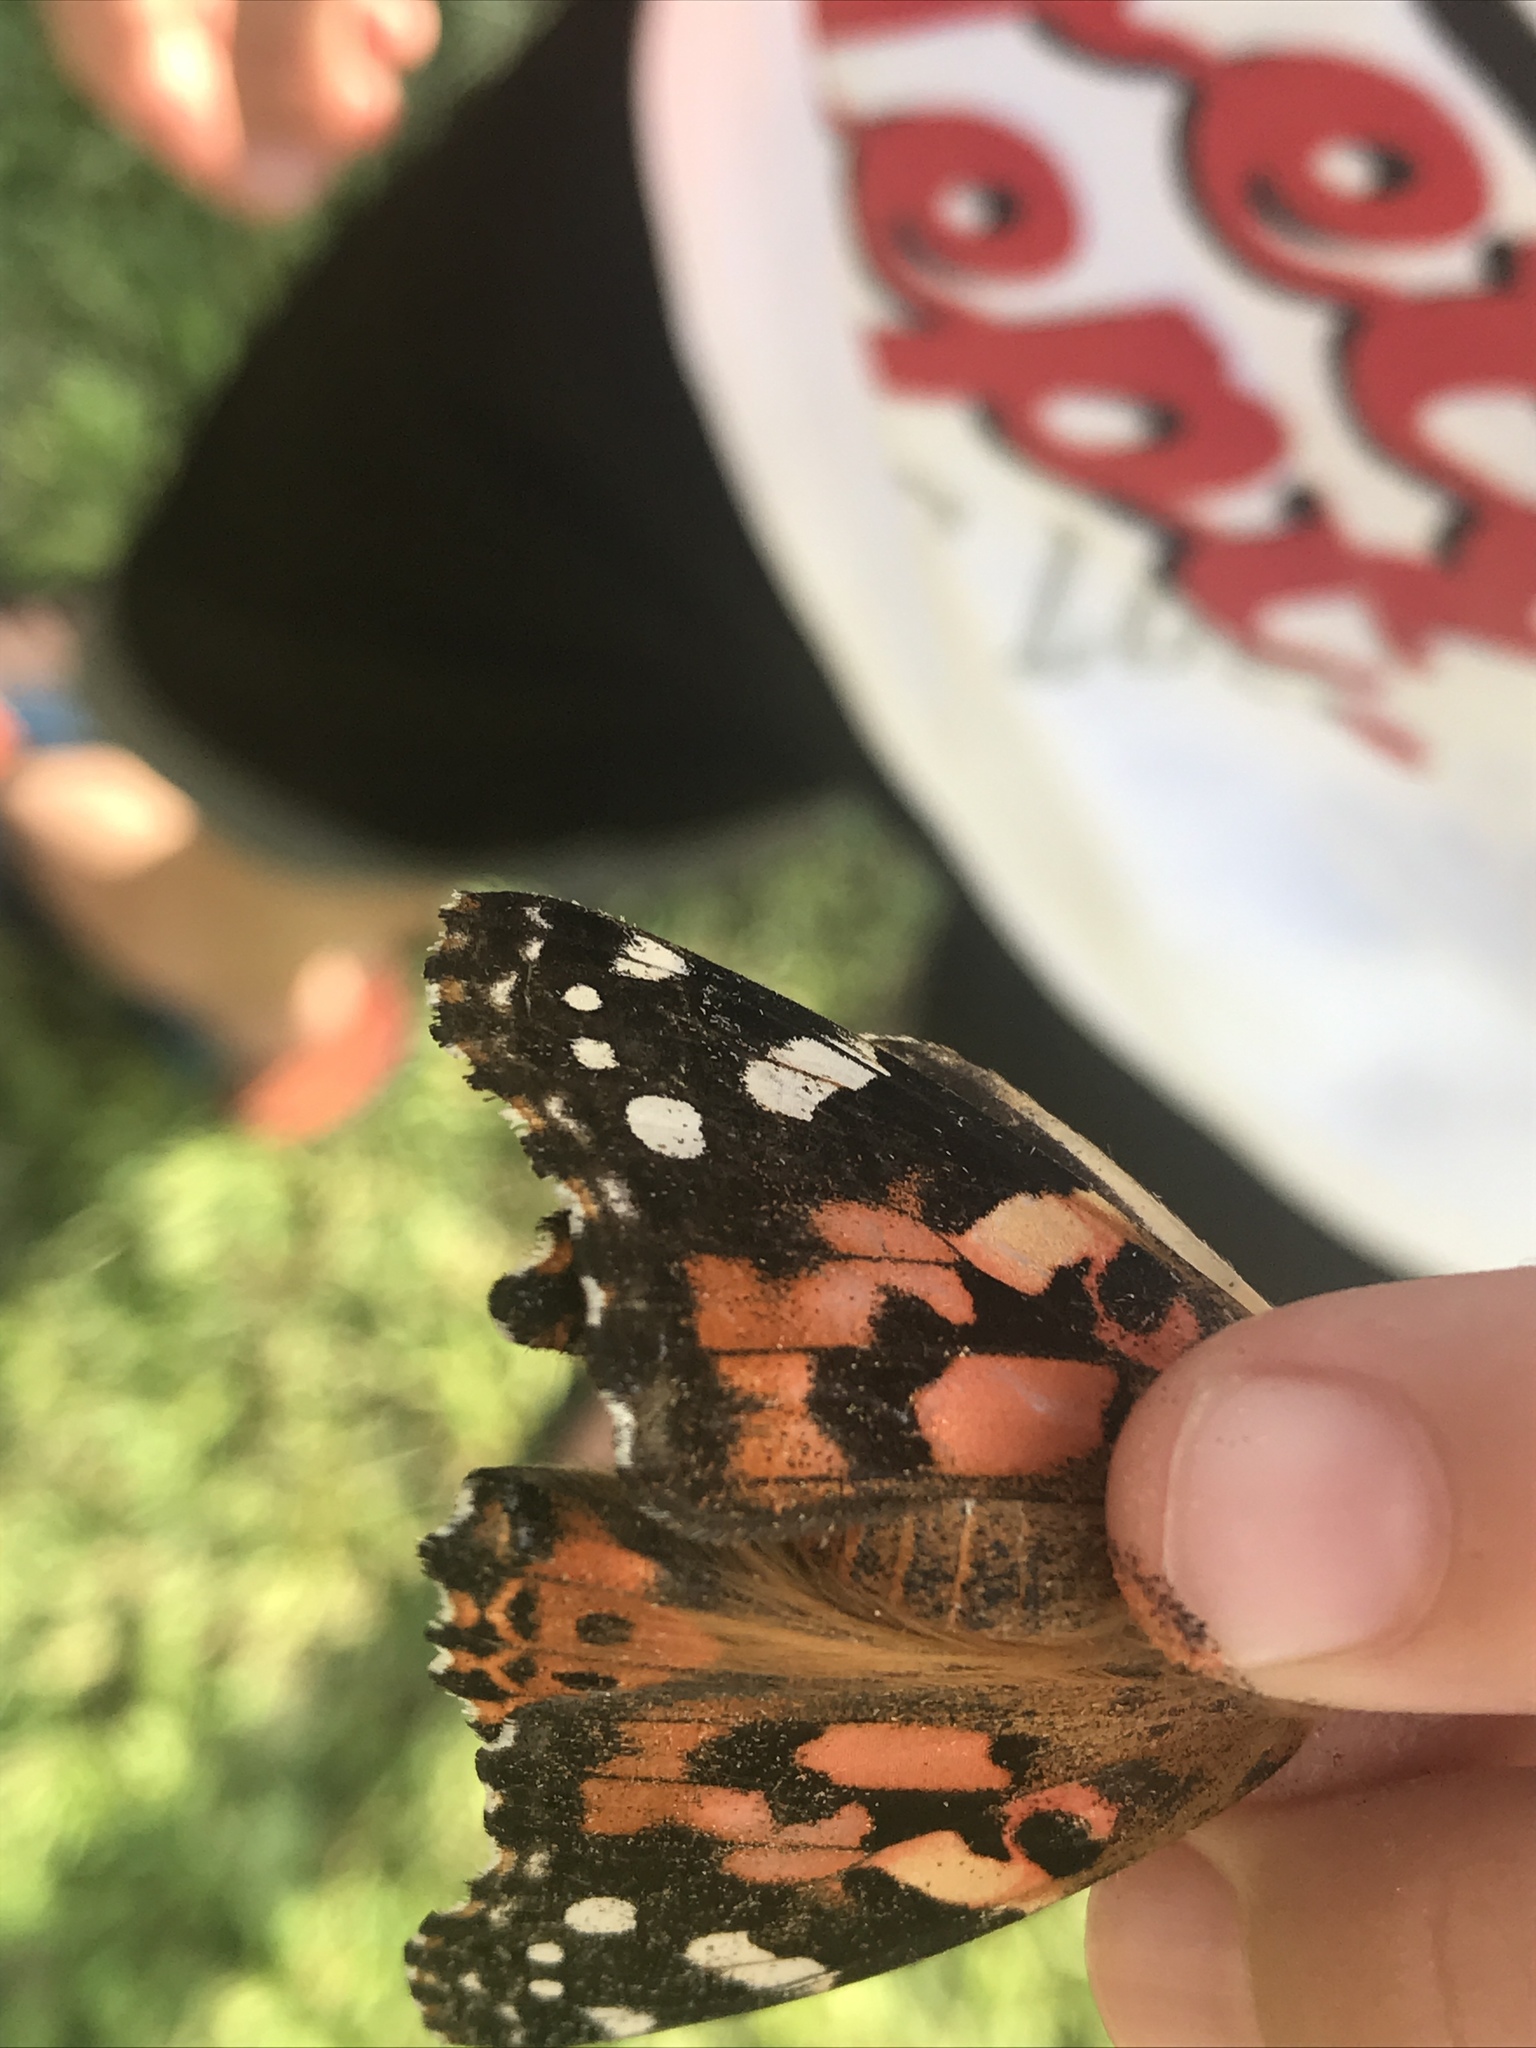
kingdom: Animalia
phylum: Arthropoda
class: Insecta
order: Lepidoptera
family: Nymphalidae
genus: Vanessa
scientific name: Vanessa cardui
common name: Painted lady
